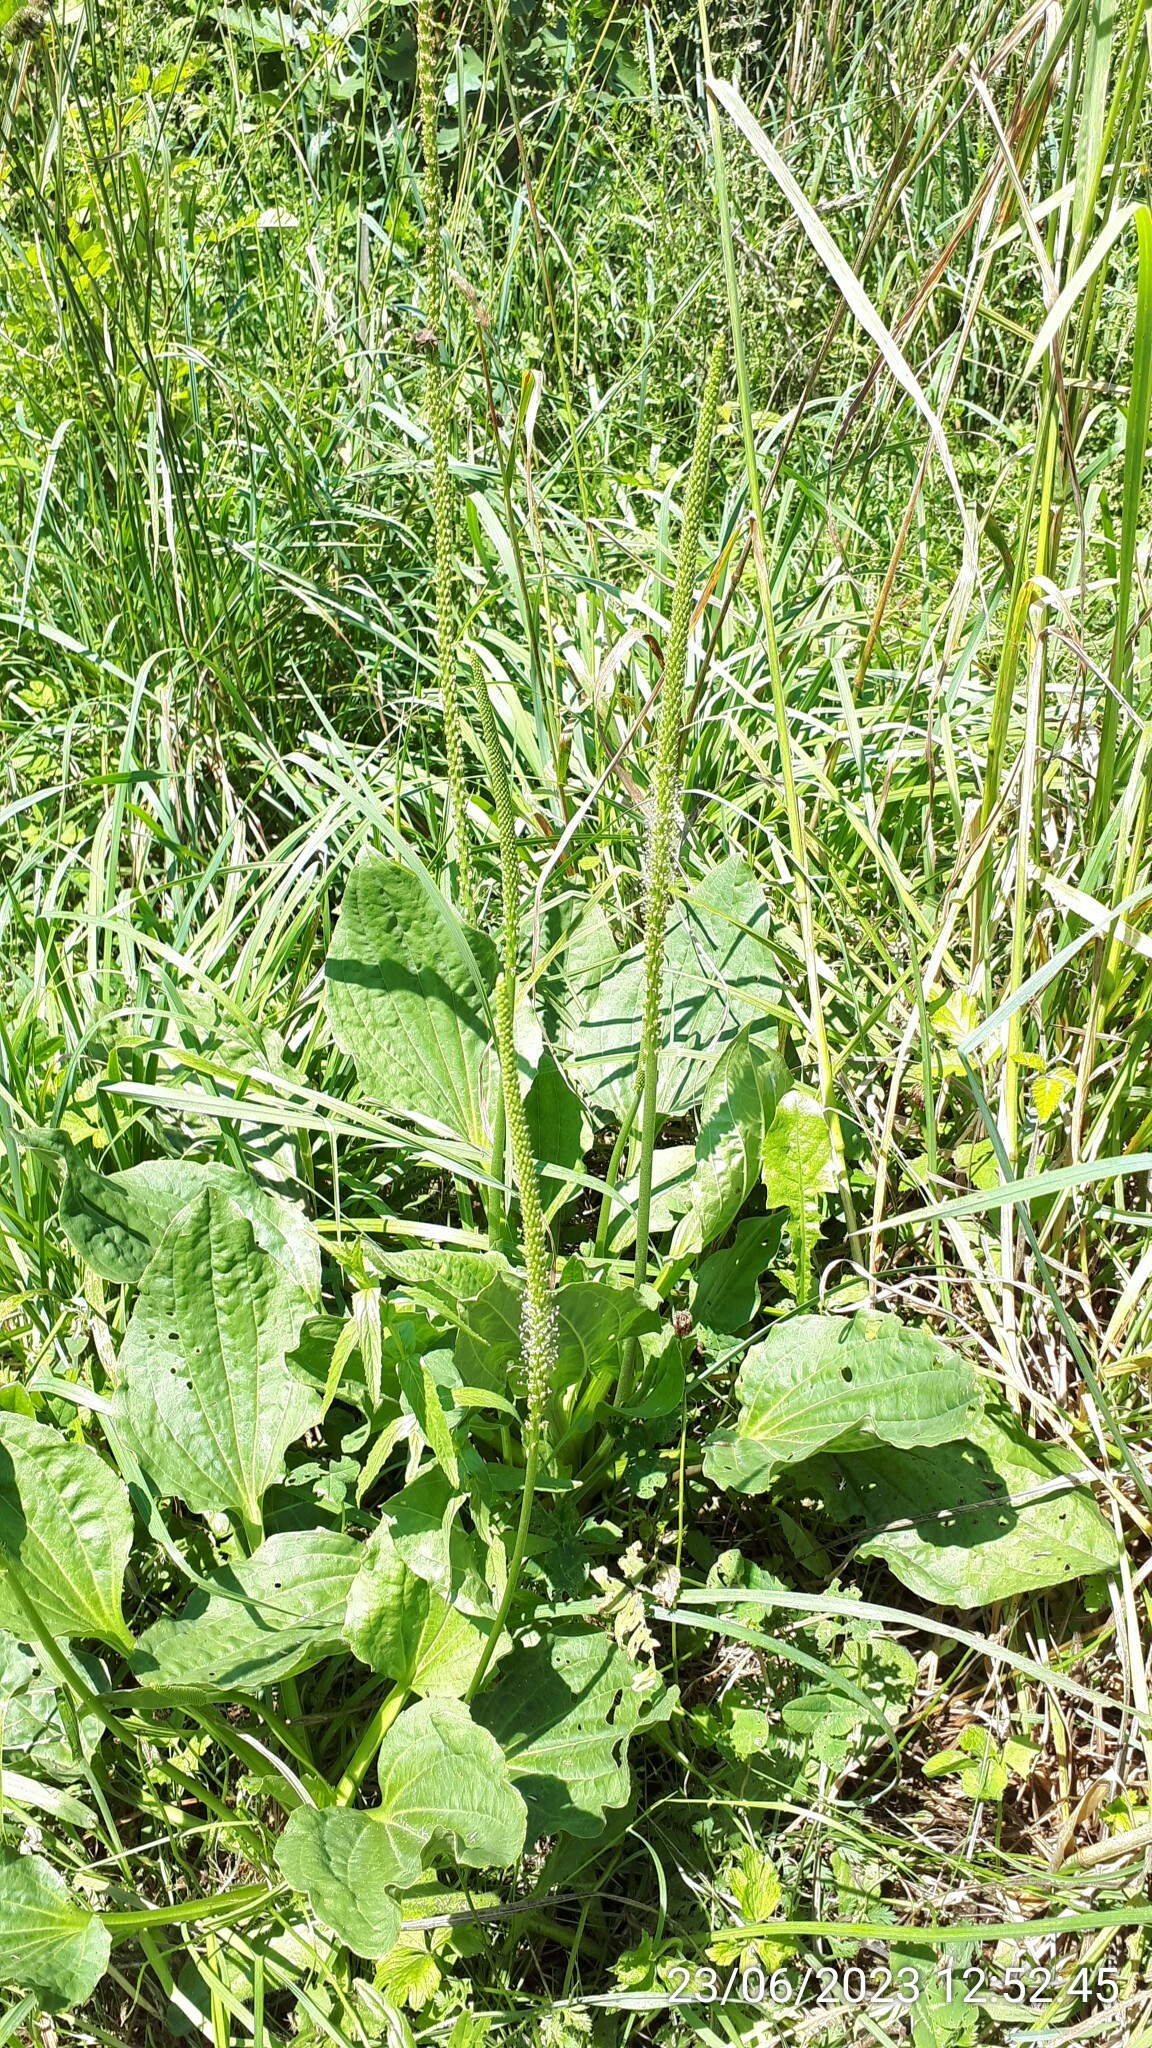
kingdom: Plantae
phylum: Tracheophyta
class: Magnoliopsida
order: Lamiales
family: Plantaginaceae
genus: Plantago
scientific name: Plantago major
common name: Common plantain
